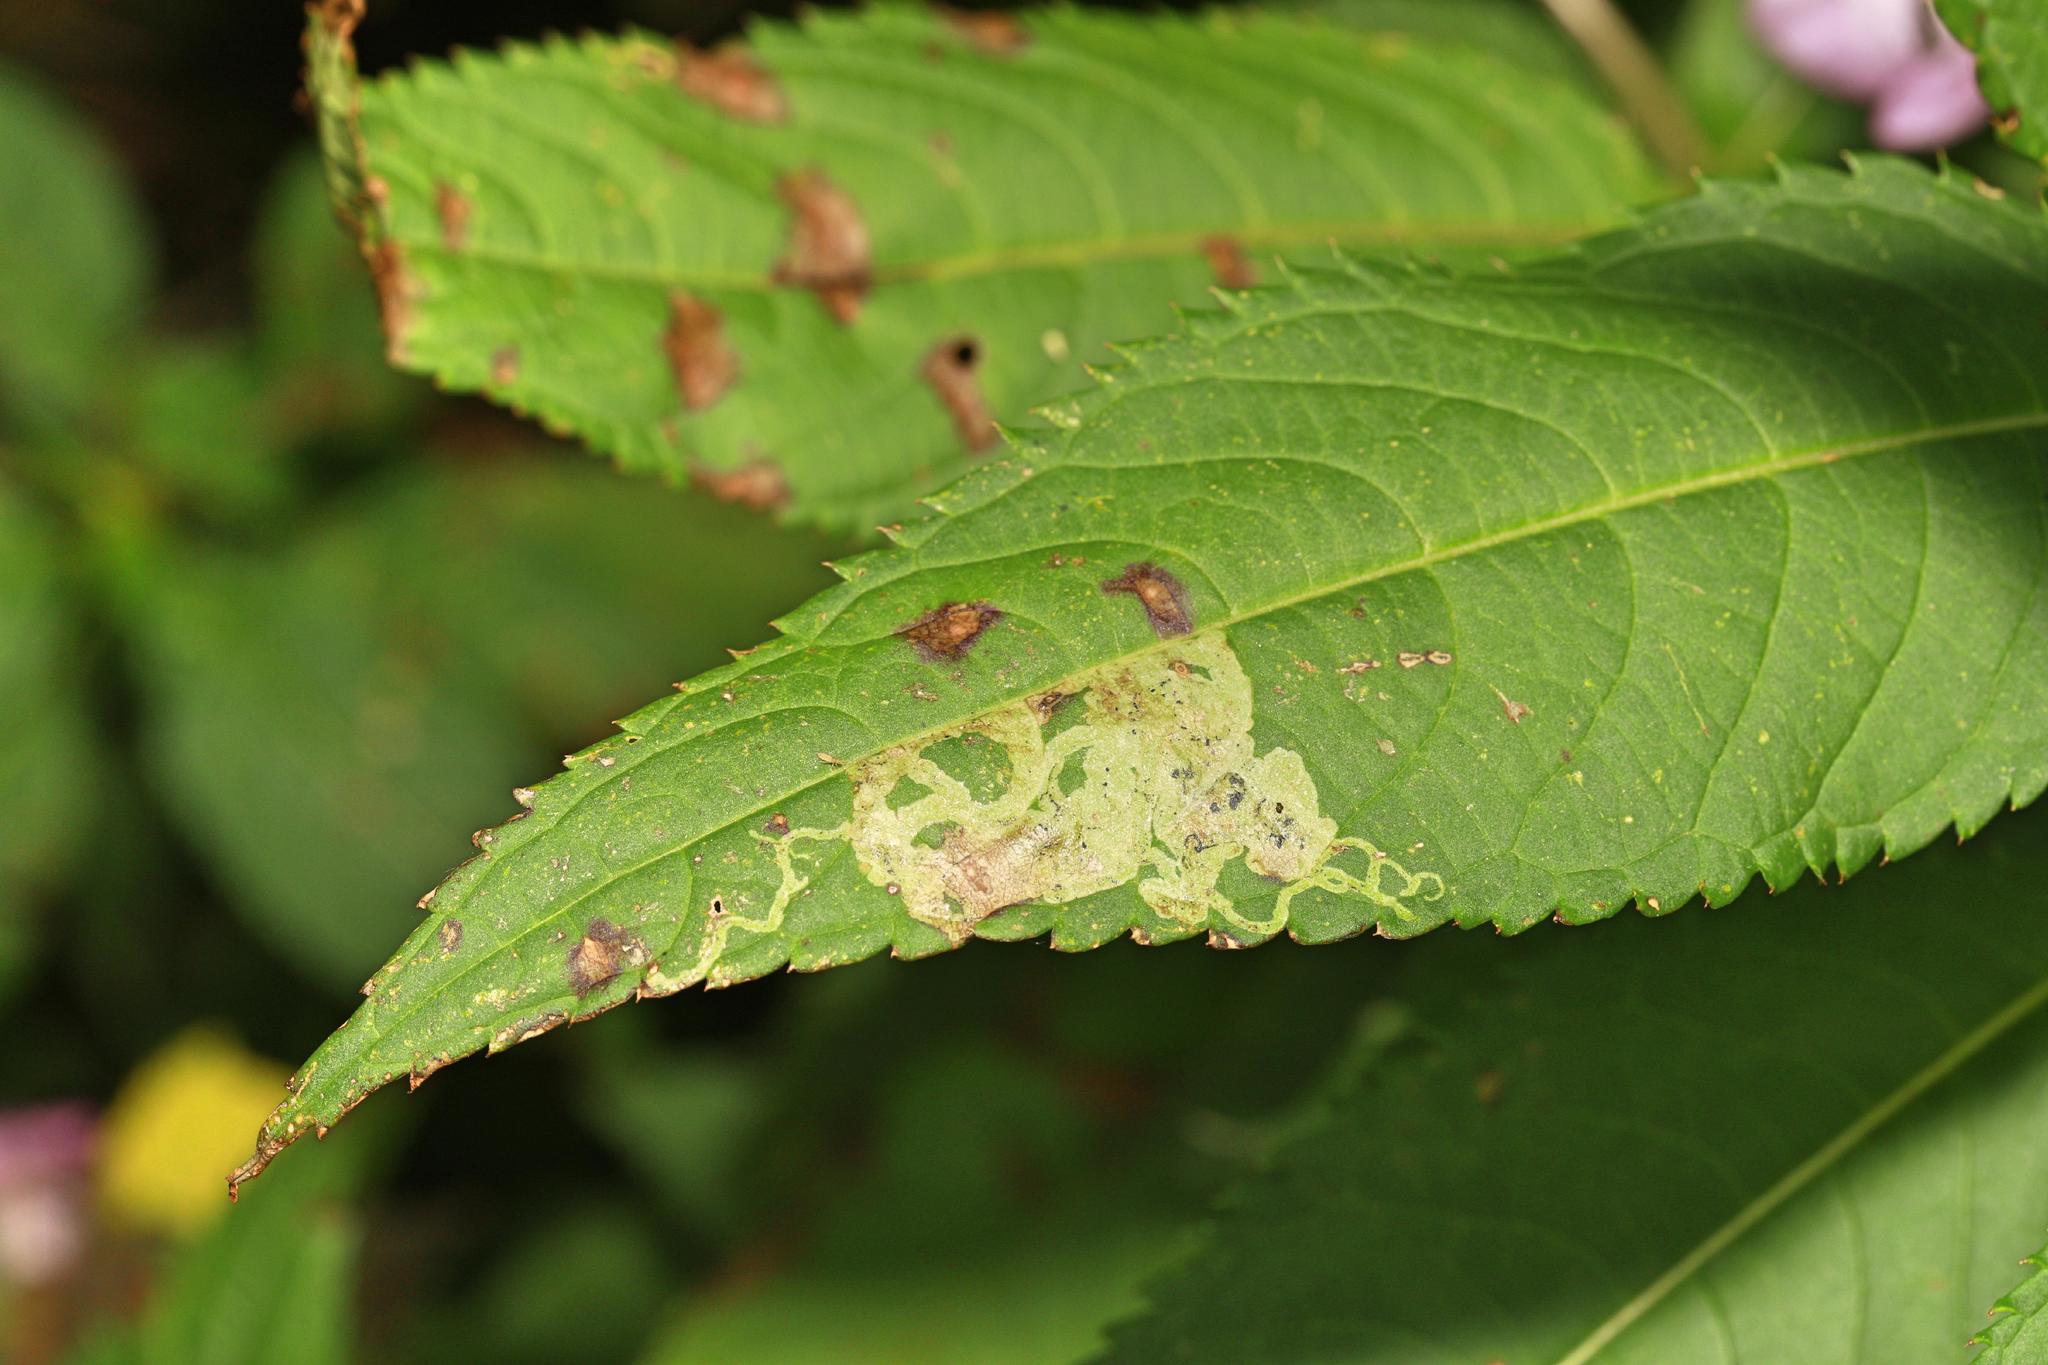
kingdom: Animalia
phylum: Arthropoda
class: Insecta
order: Diptera
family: Agromyzidae
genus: Phytoliriomyza
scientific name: Phytoliriomyza melampyga
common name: Jewelweed leaf-miner fly
